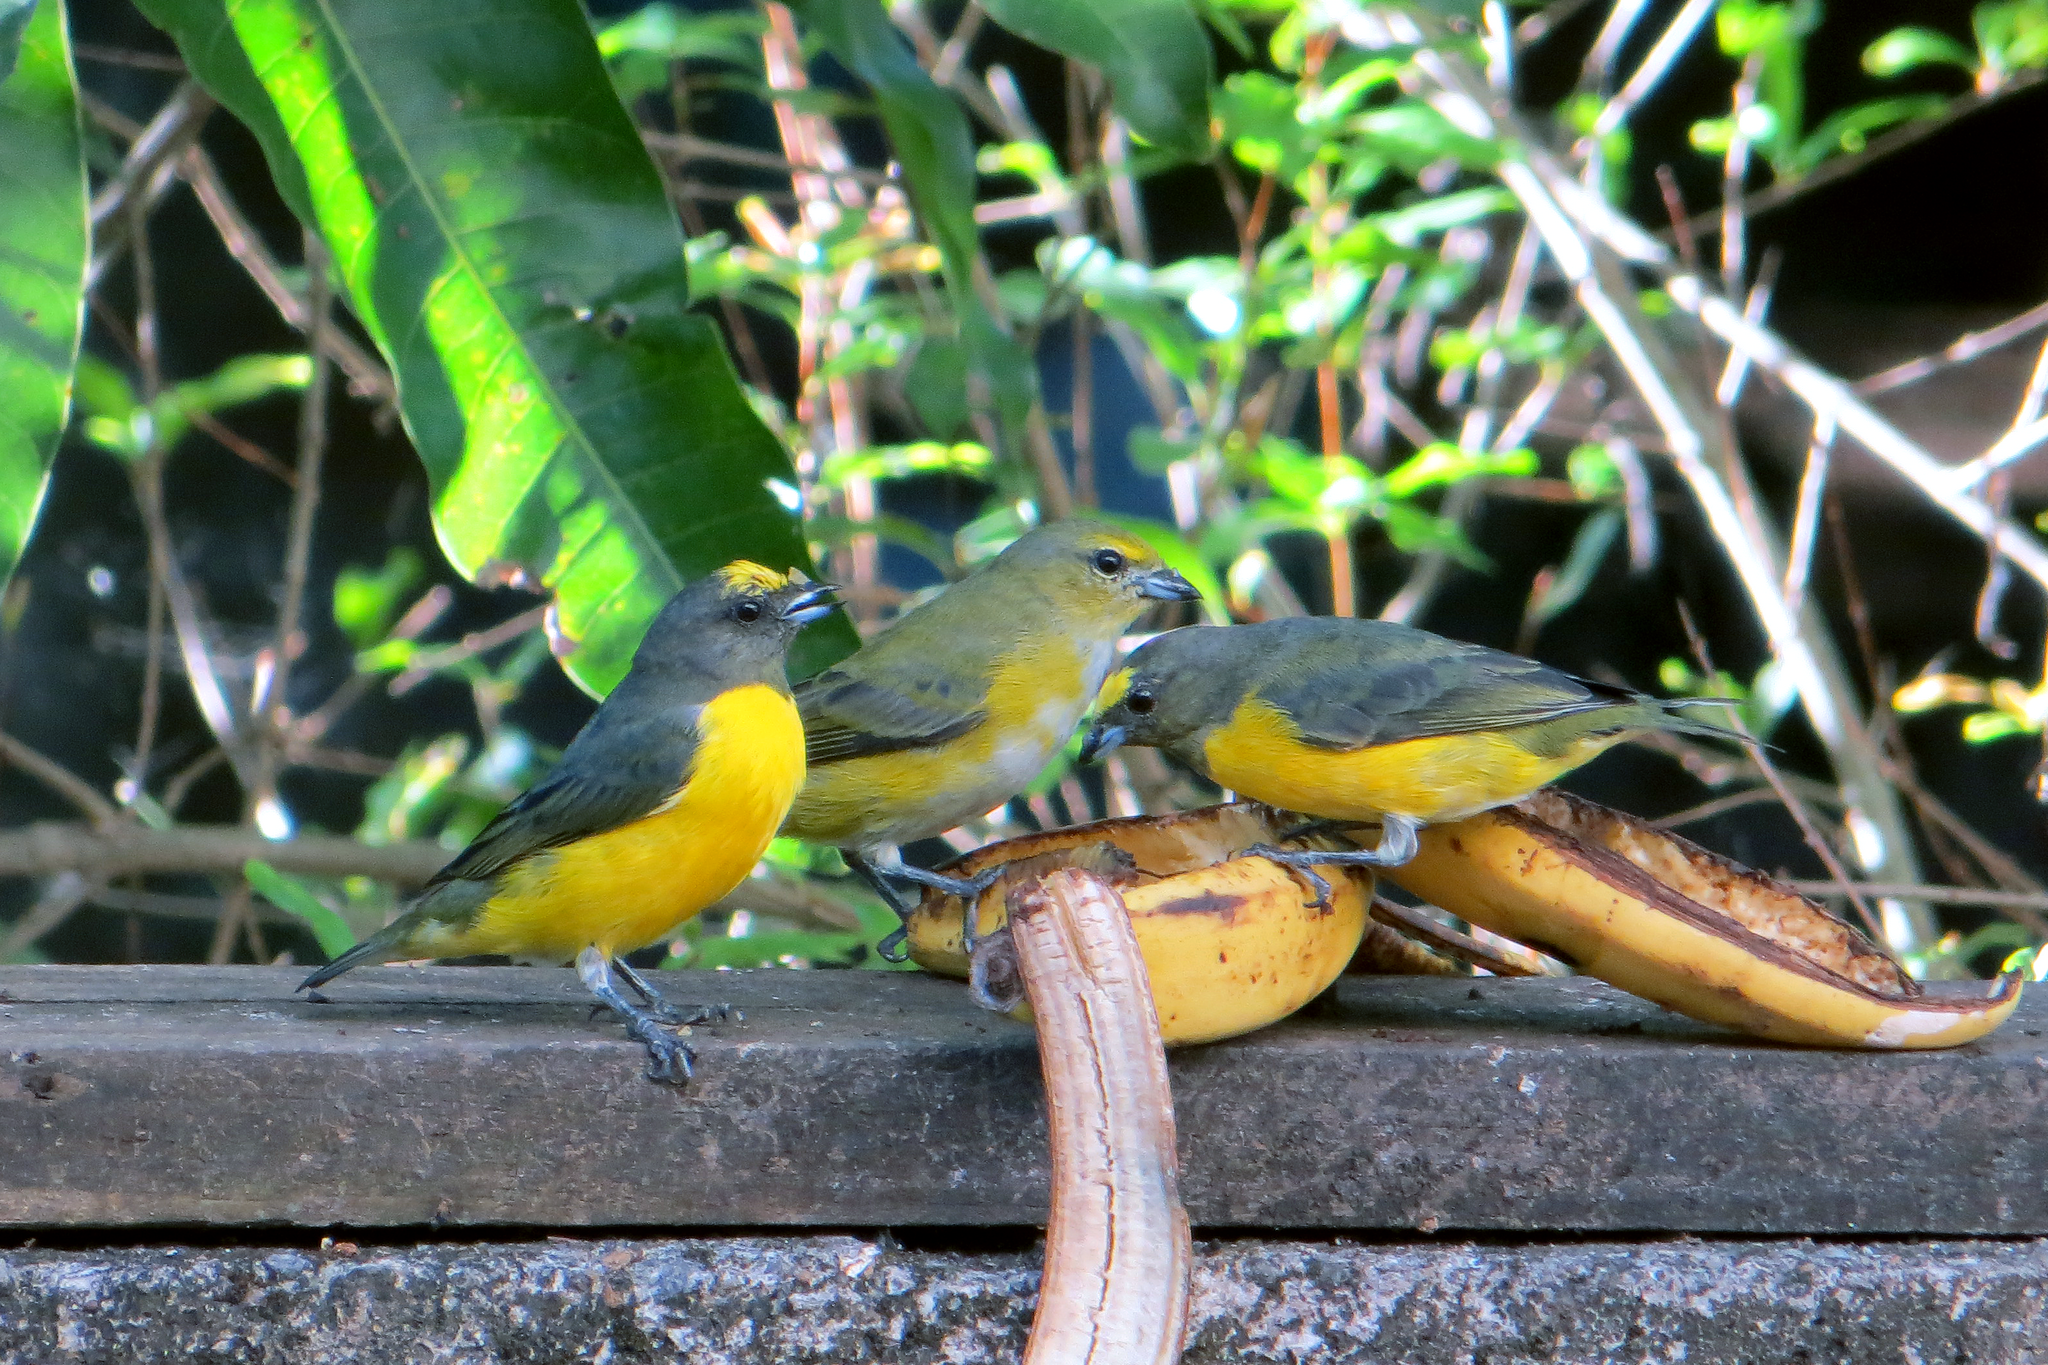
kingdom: Animalia
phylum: Chordata
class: Aves
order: Passeriformes
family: Fringillidae
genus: Euphonia
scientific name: Euphonia chlorotica
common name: Purple-throated euphonia
